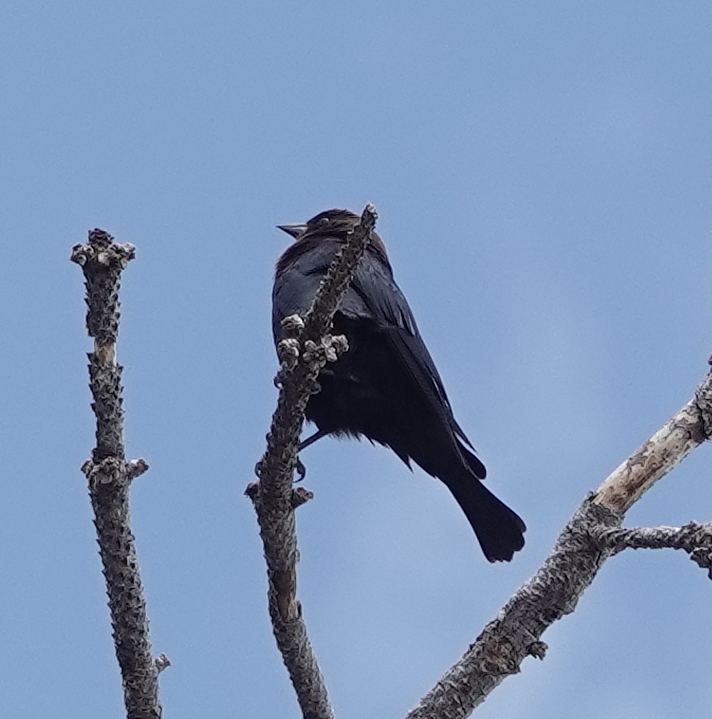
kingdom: Animalia
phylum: Chordata
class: Aves
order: Passeriformes
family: Icteridae
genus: Molothrus
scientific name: Molothrus ater
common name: Brown-headed cowbird
